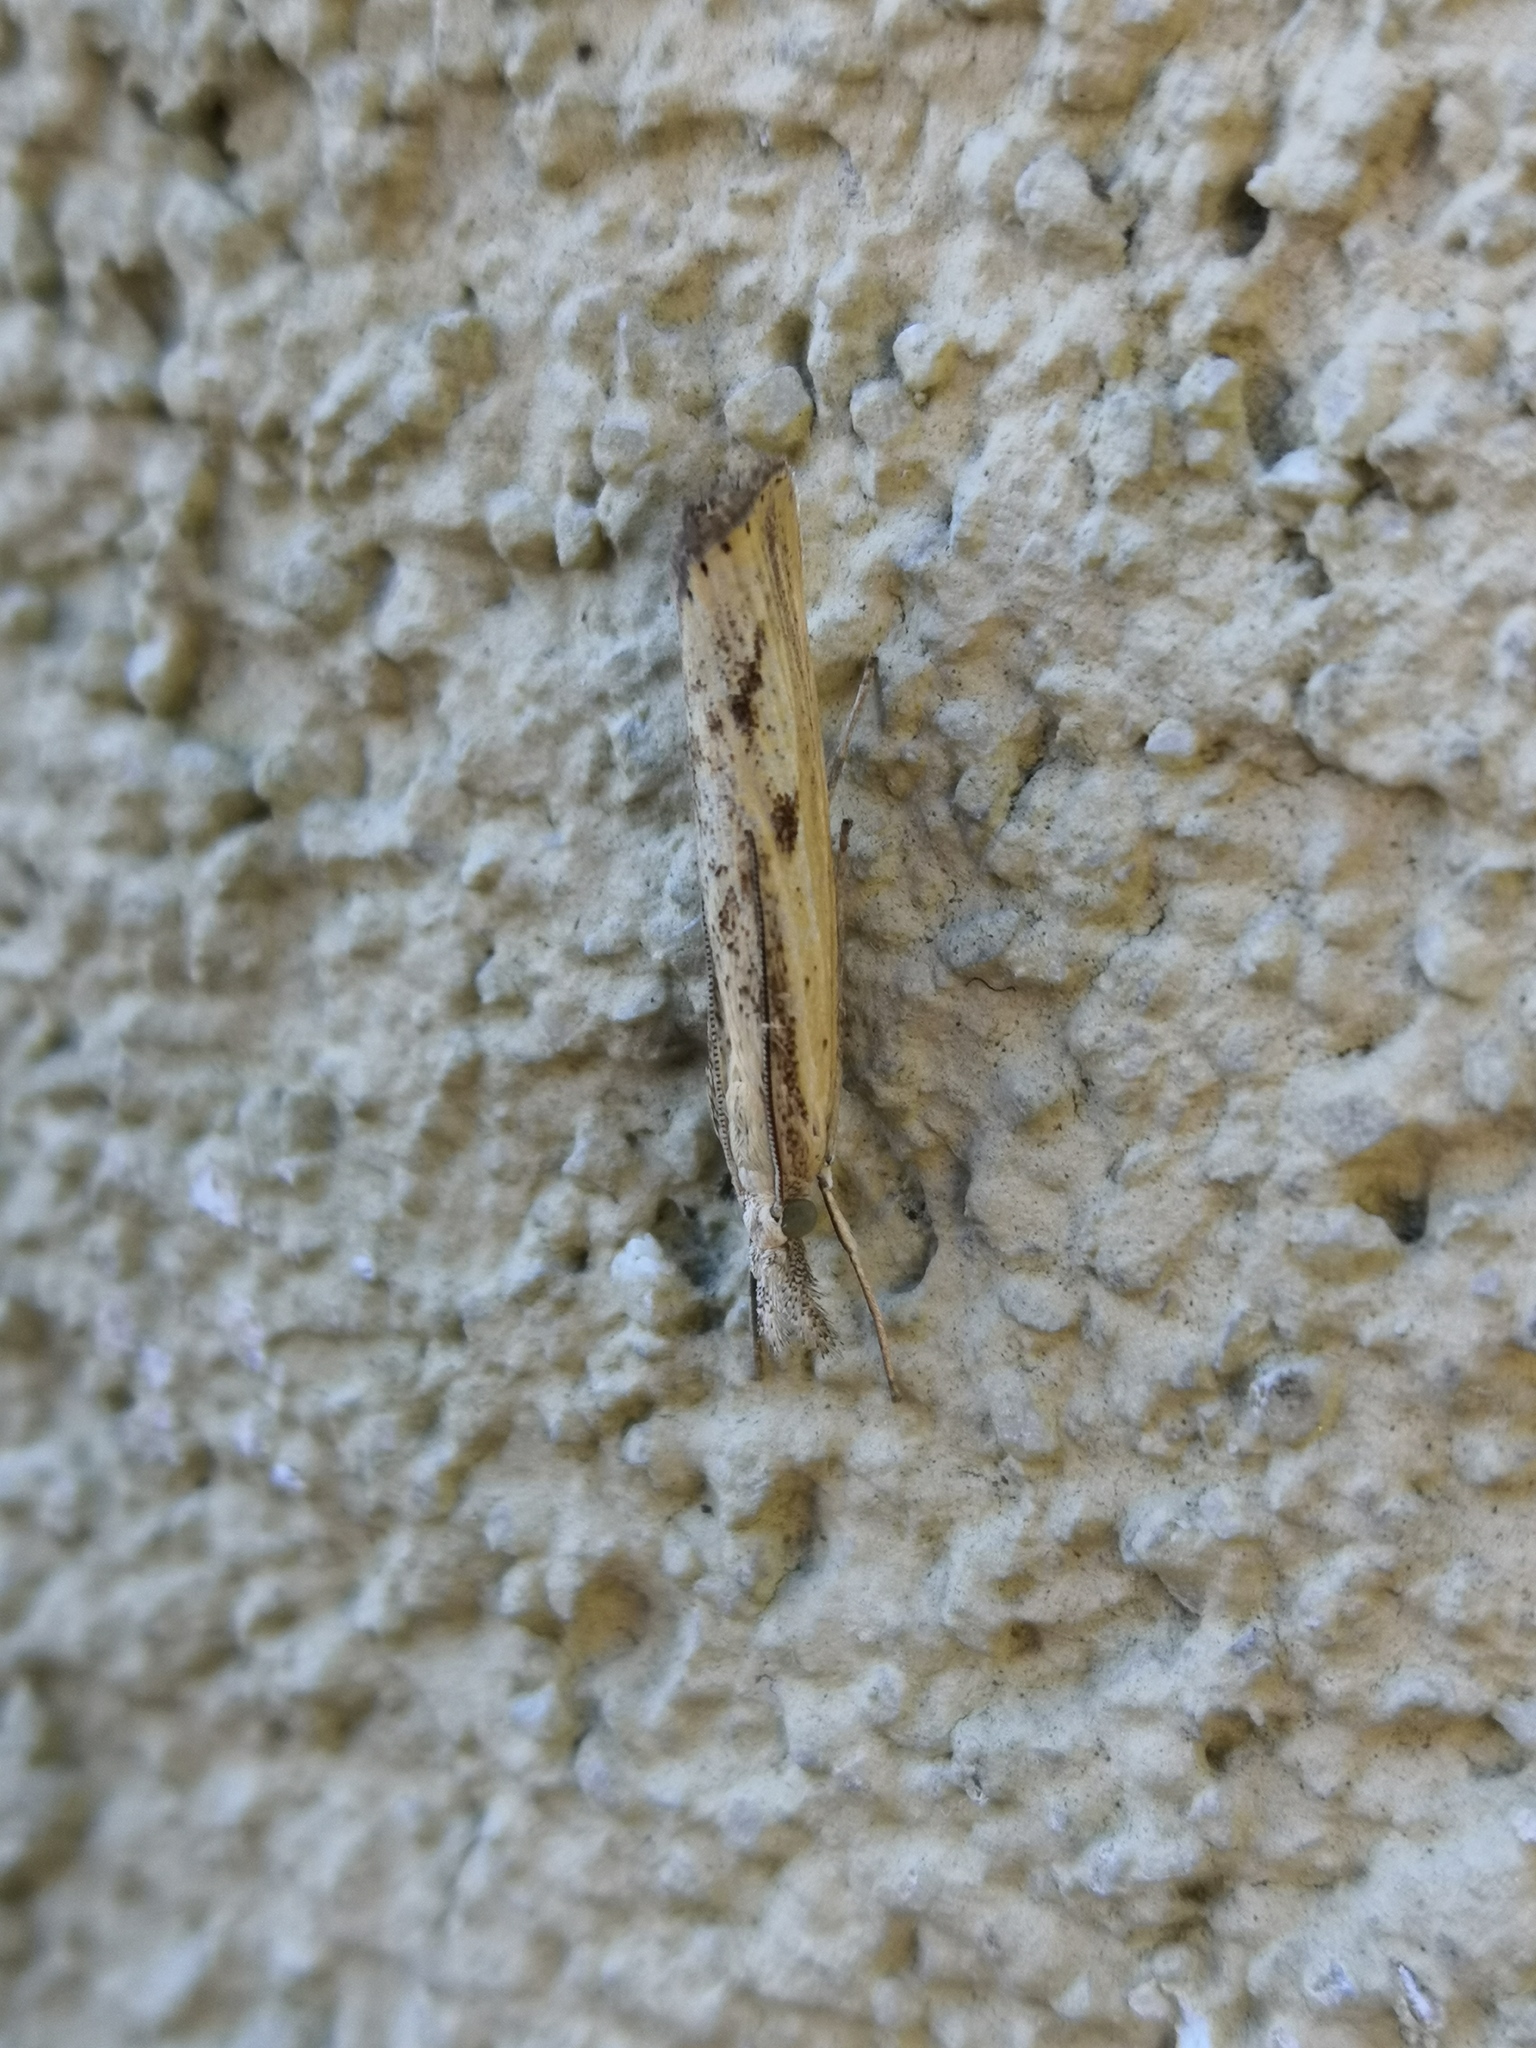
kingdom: Animalia
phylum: Arthropoda
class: Insecta
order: Lepidoptera
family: Crambidae
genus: Agriphila
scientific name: Agriphila inquinatella
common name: Barred grass-veneer
